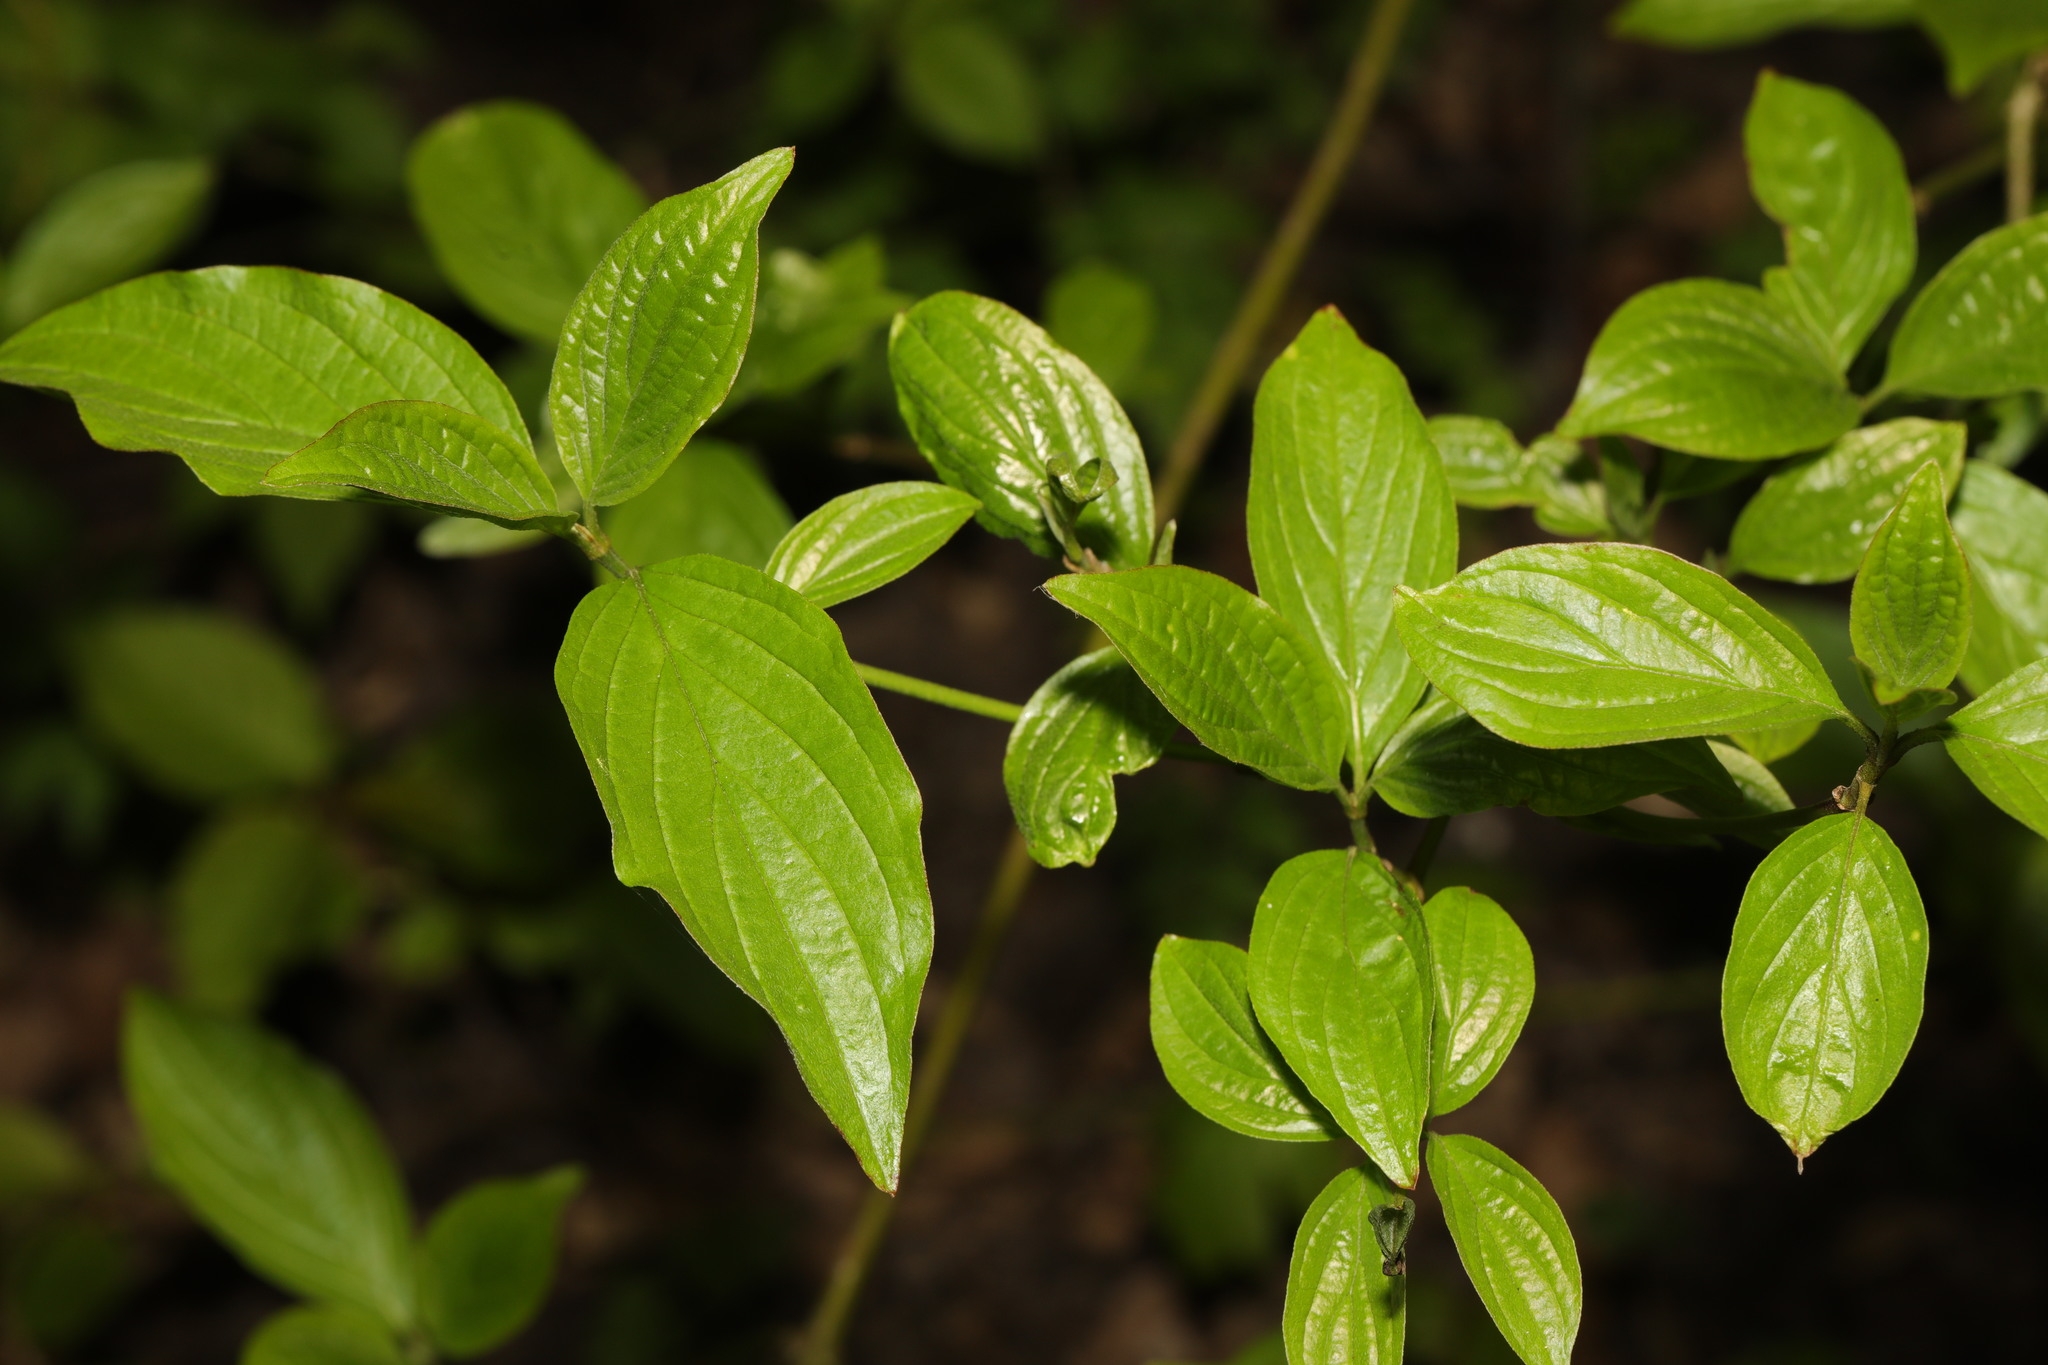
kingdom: Plantae
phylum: Tracheophyta
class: Magnoliopsida
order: Cornales
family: Cornaceae
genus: Cornus
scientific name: Cornus sanguinea
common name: Dogwood
